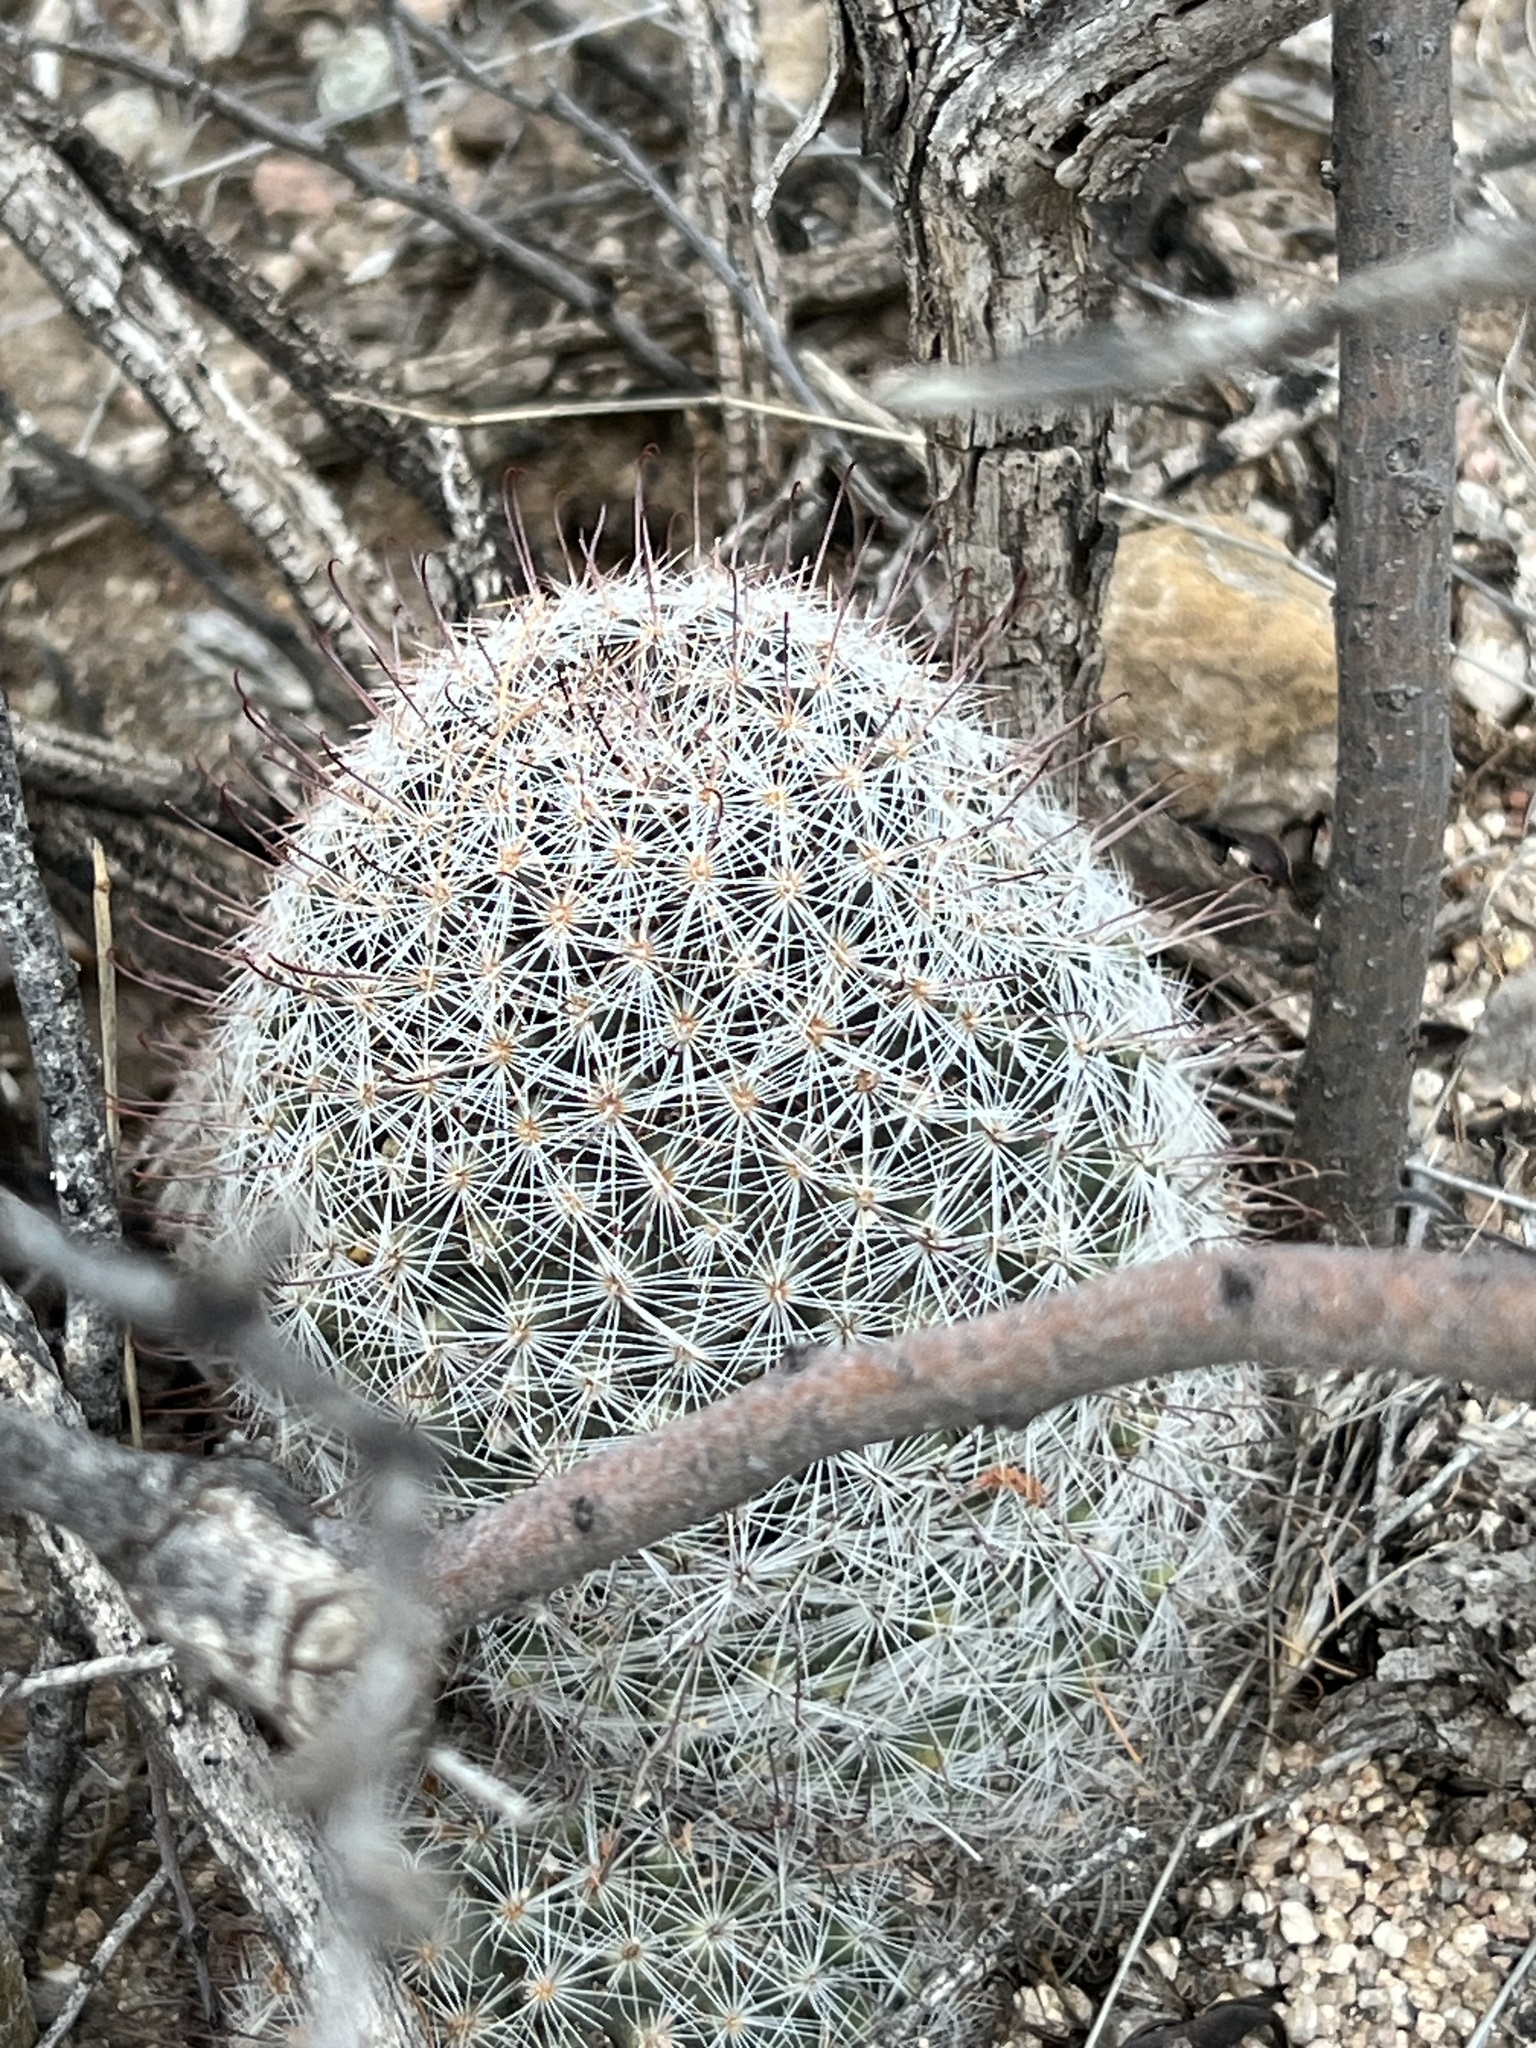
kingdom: Plantae
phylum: Tracheophyta
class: Magnoliopsida
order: Caryophyllales
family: Cactaceae
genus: Cochemiea
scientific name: Cochemiea grahamii
